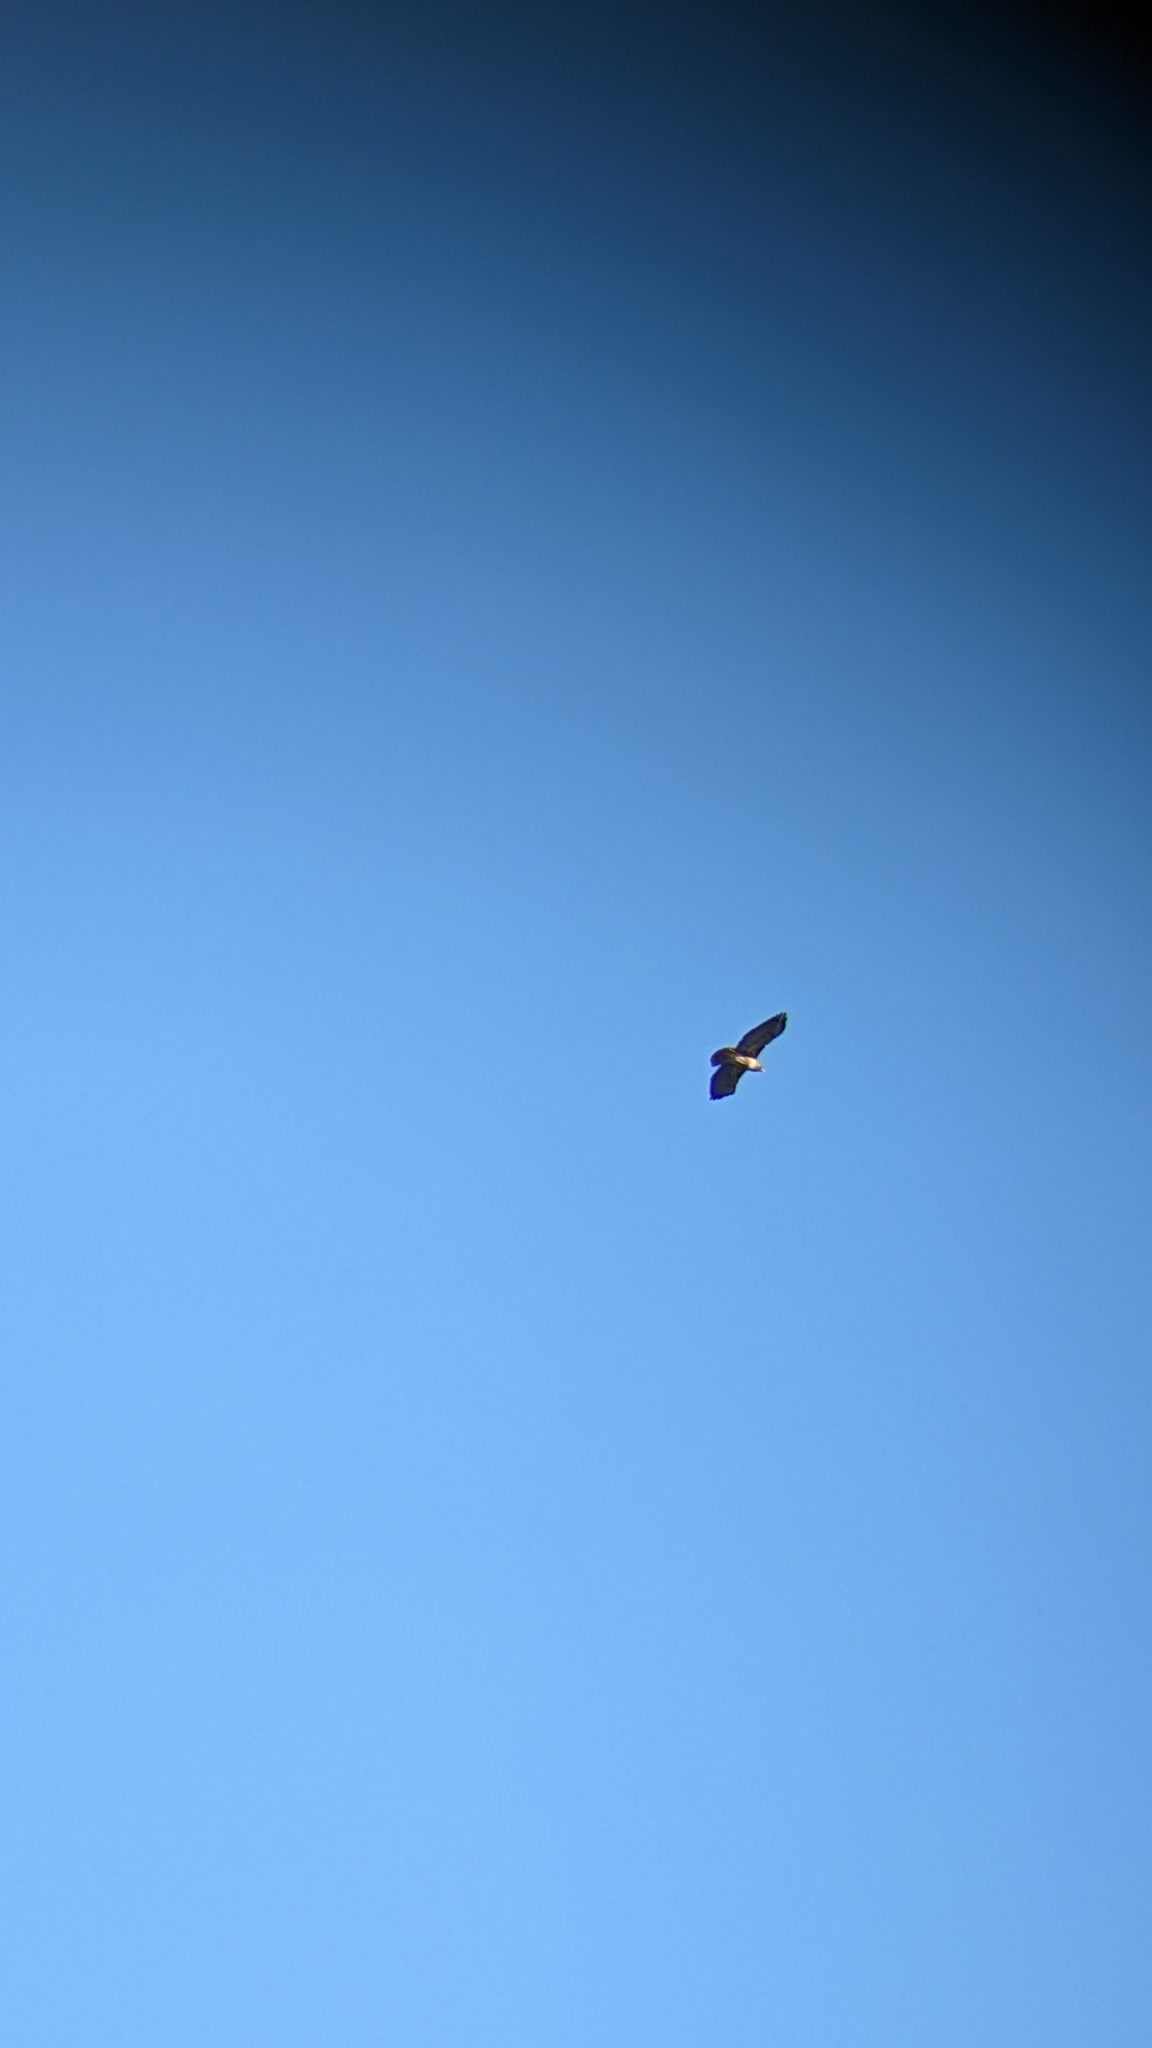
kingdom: Animalia
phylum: Chordata
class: Aves
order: Accipitriformes
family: Accipitridae
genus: Buteo
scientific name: Buteo jamaicensis
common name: Red-tailed hawk
